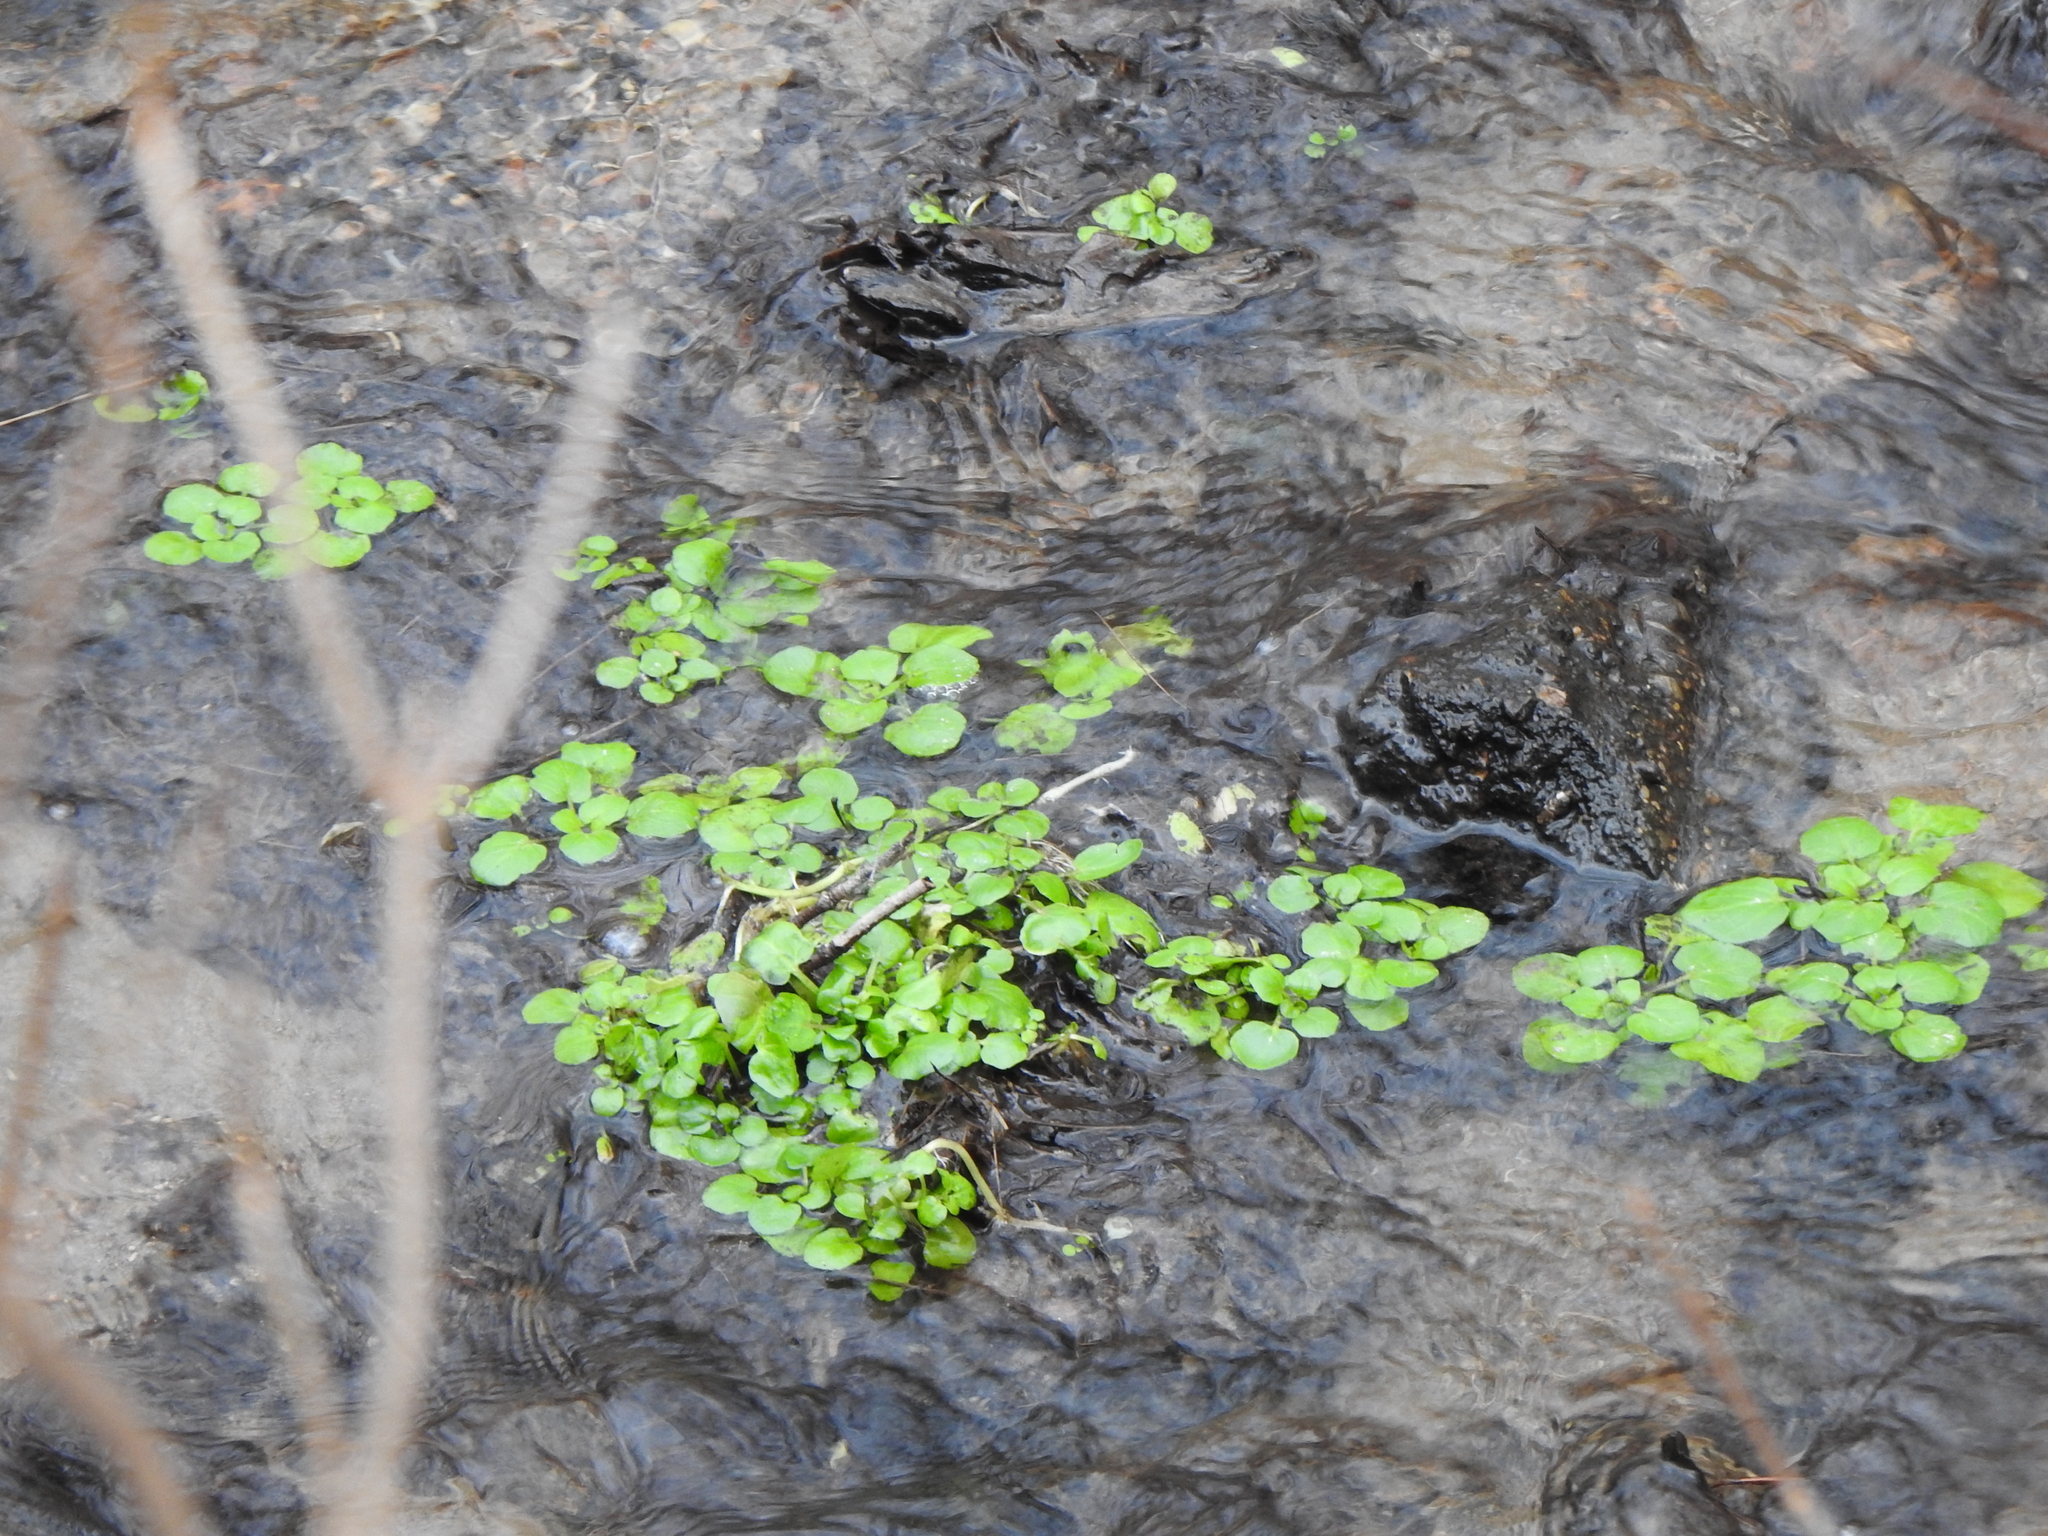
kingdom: Plantae
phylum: Tracheophyta
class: Magnoliopsida
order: Brassicales
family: Brassicaceae
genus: Nasturtium
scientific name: Nasturtium officinale
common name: Watercress
